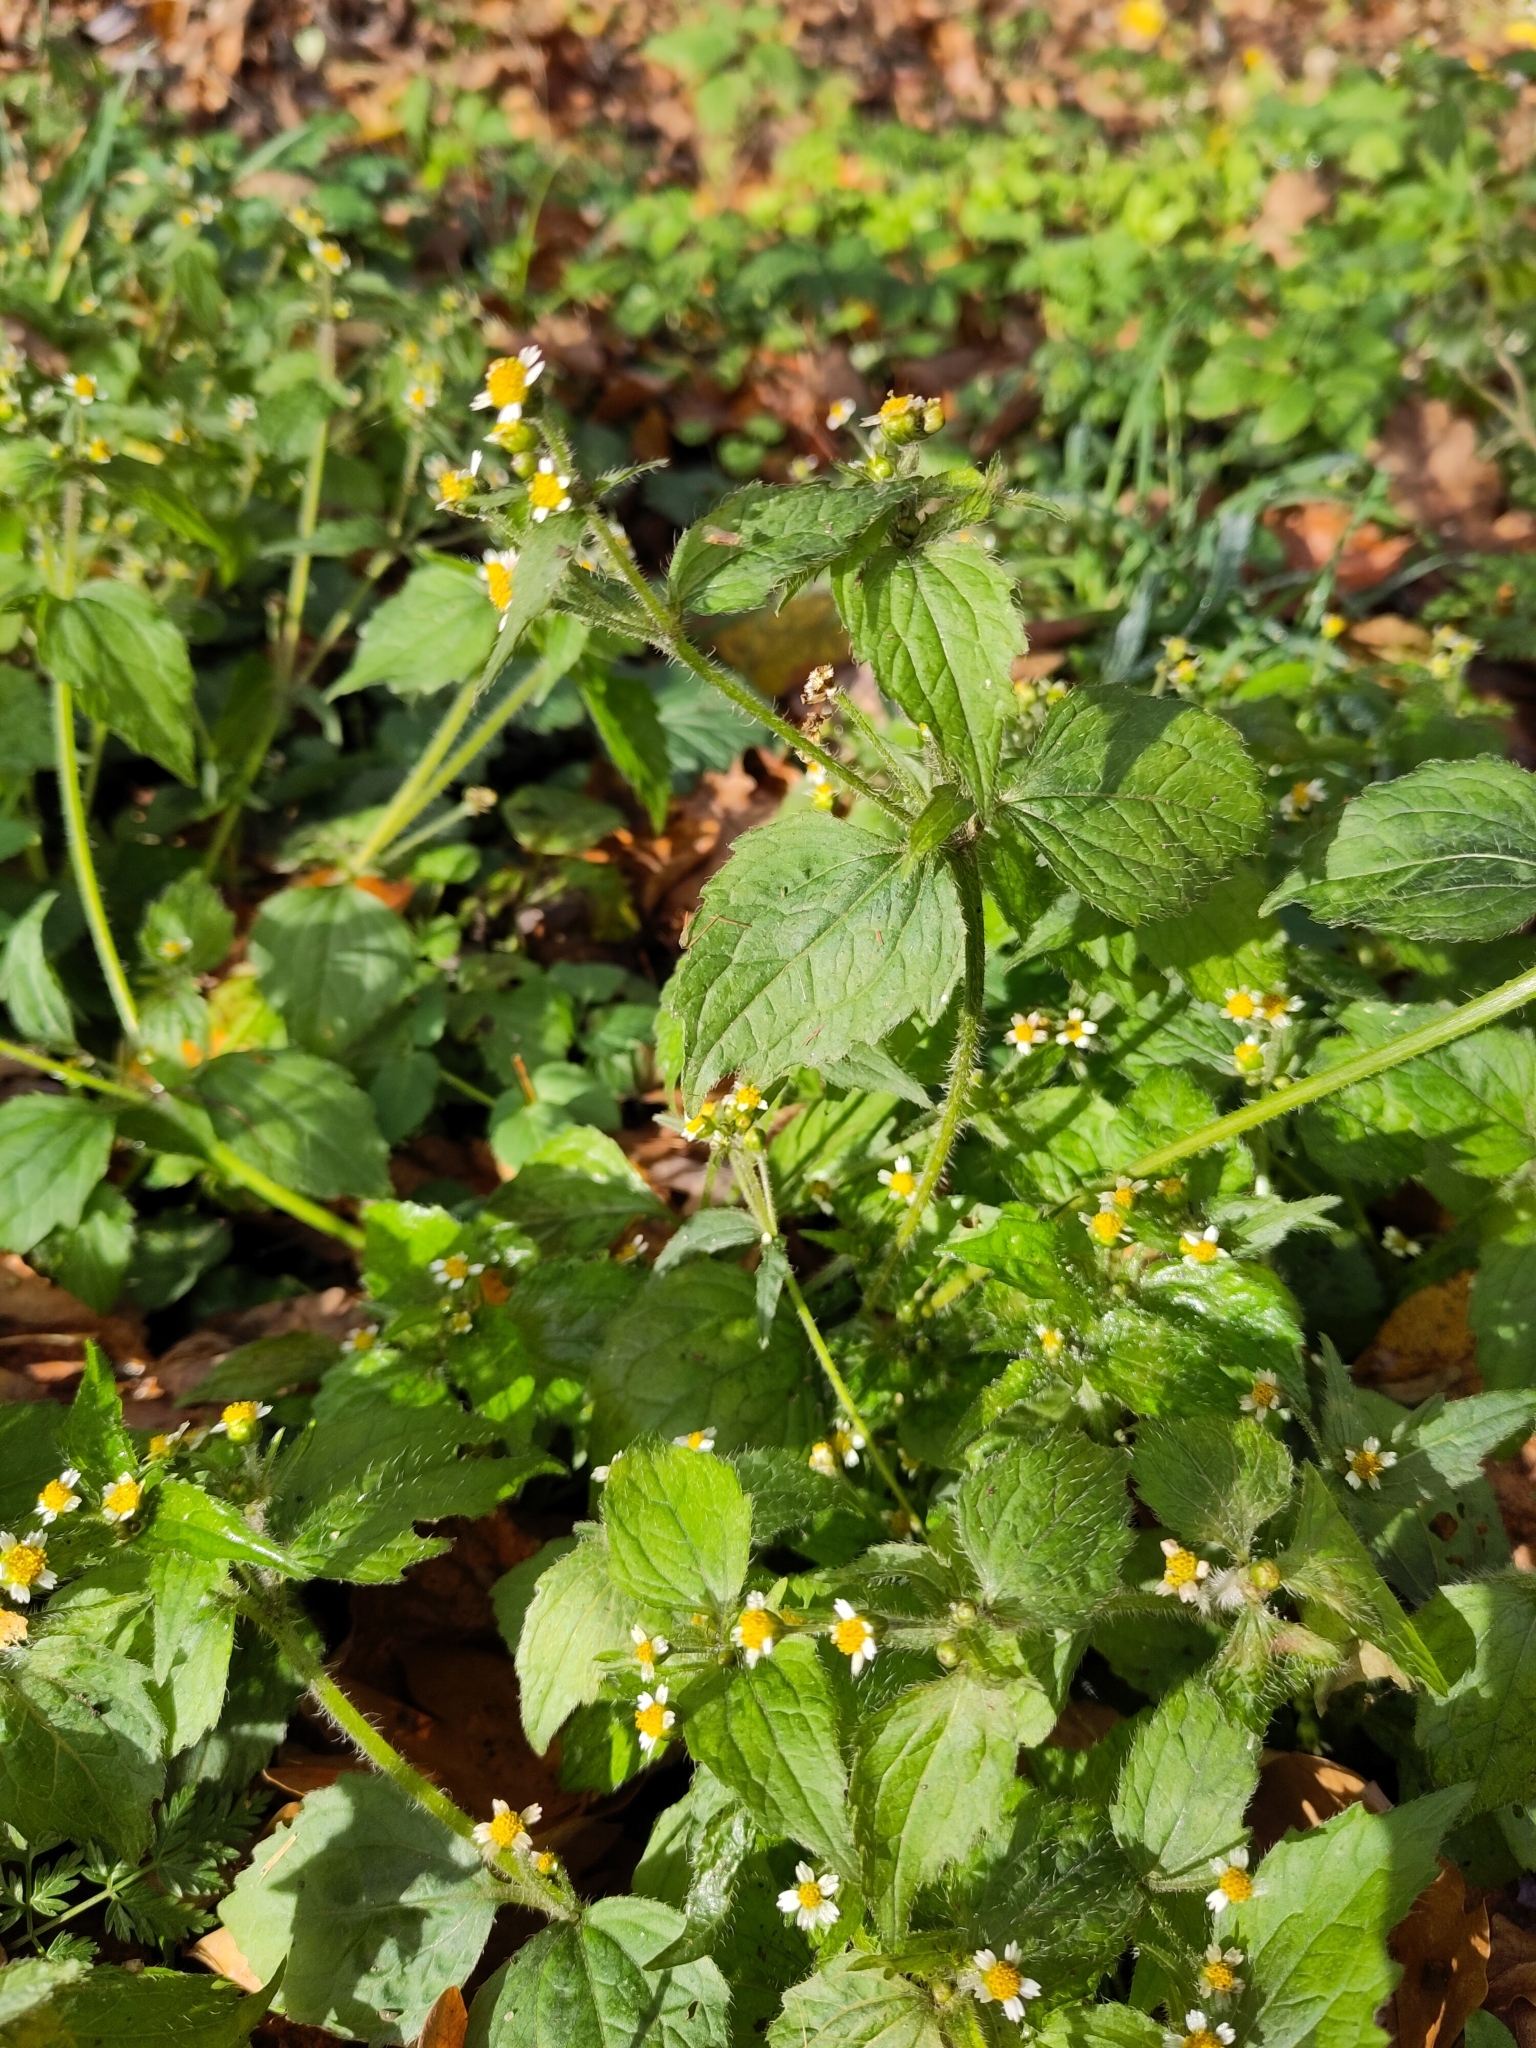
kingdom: Plantae
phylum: Tracheophyta
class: Magnoliopsida
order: Asterales
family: Asteraceae
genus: Galinsoga
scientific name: Galinsoga quadriradiata
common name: Shaggy soldier
